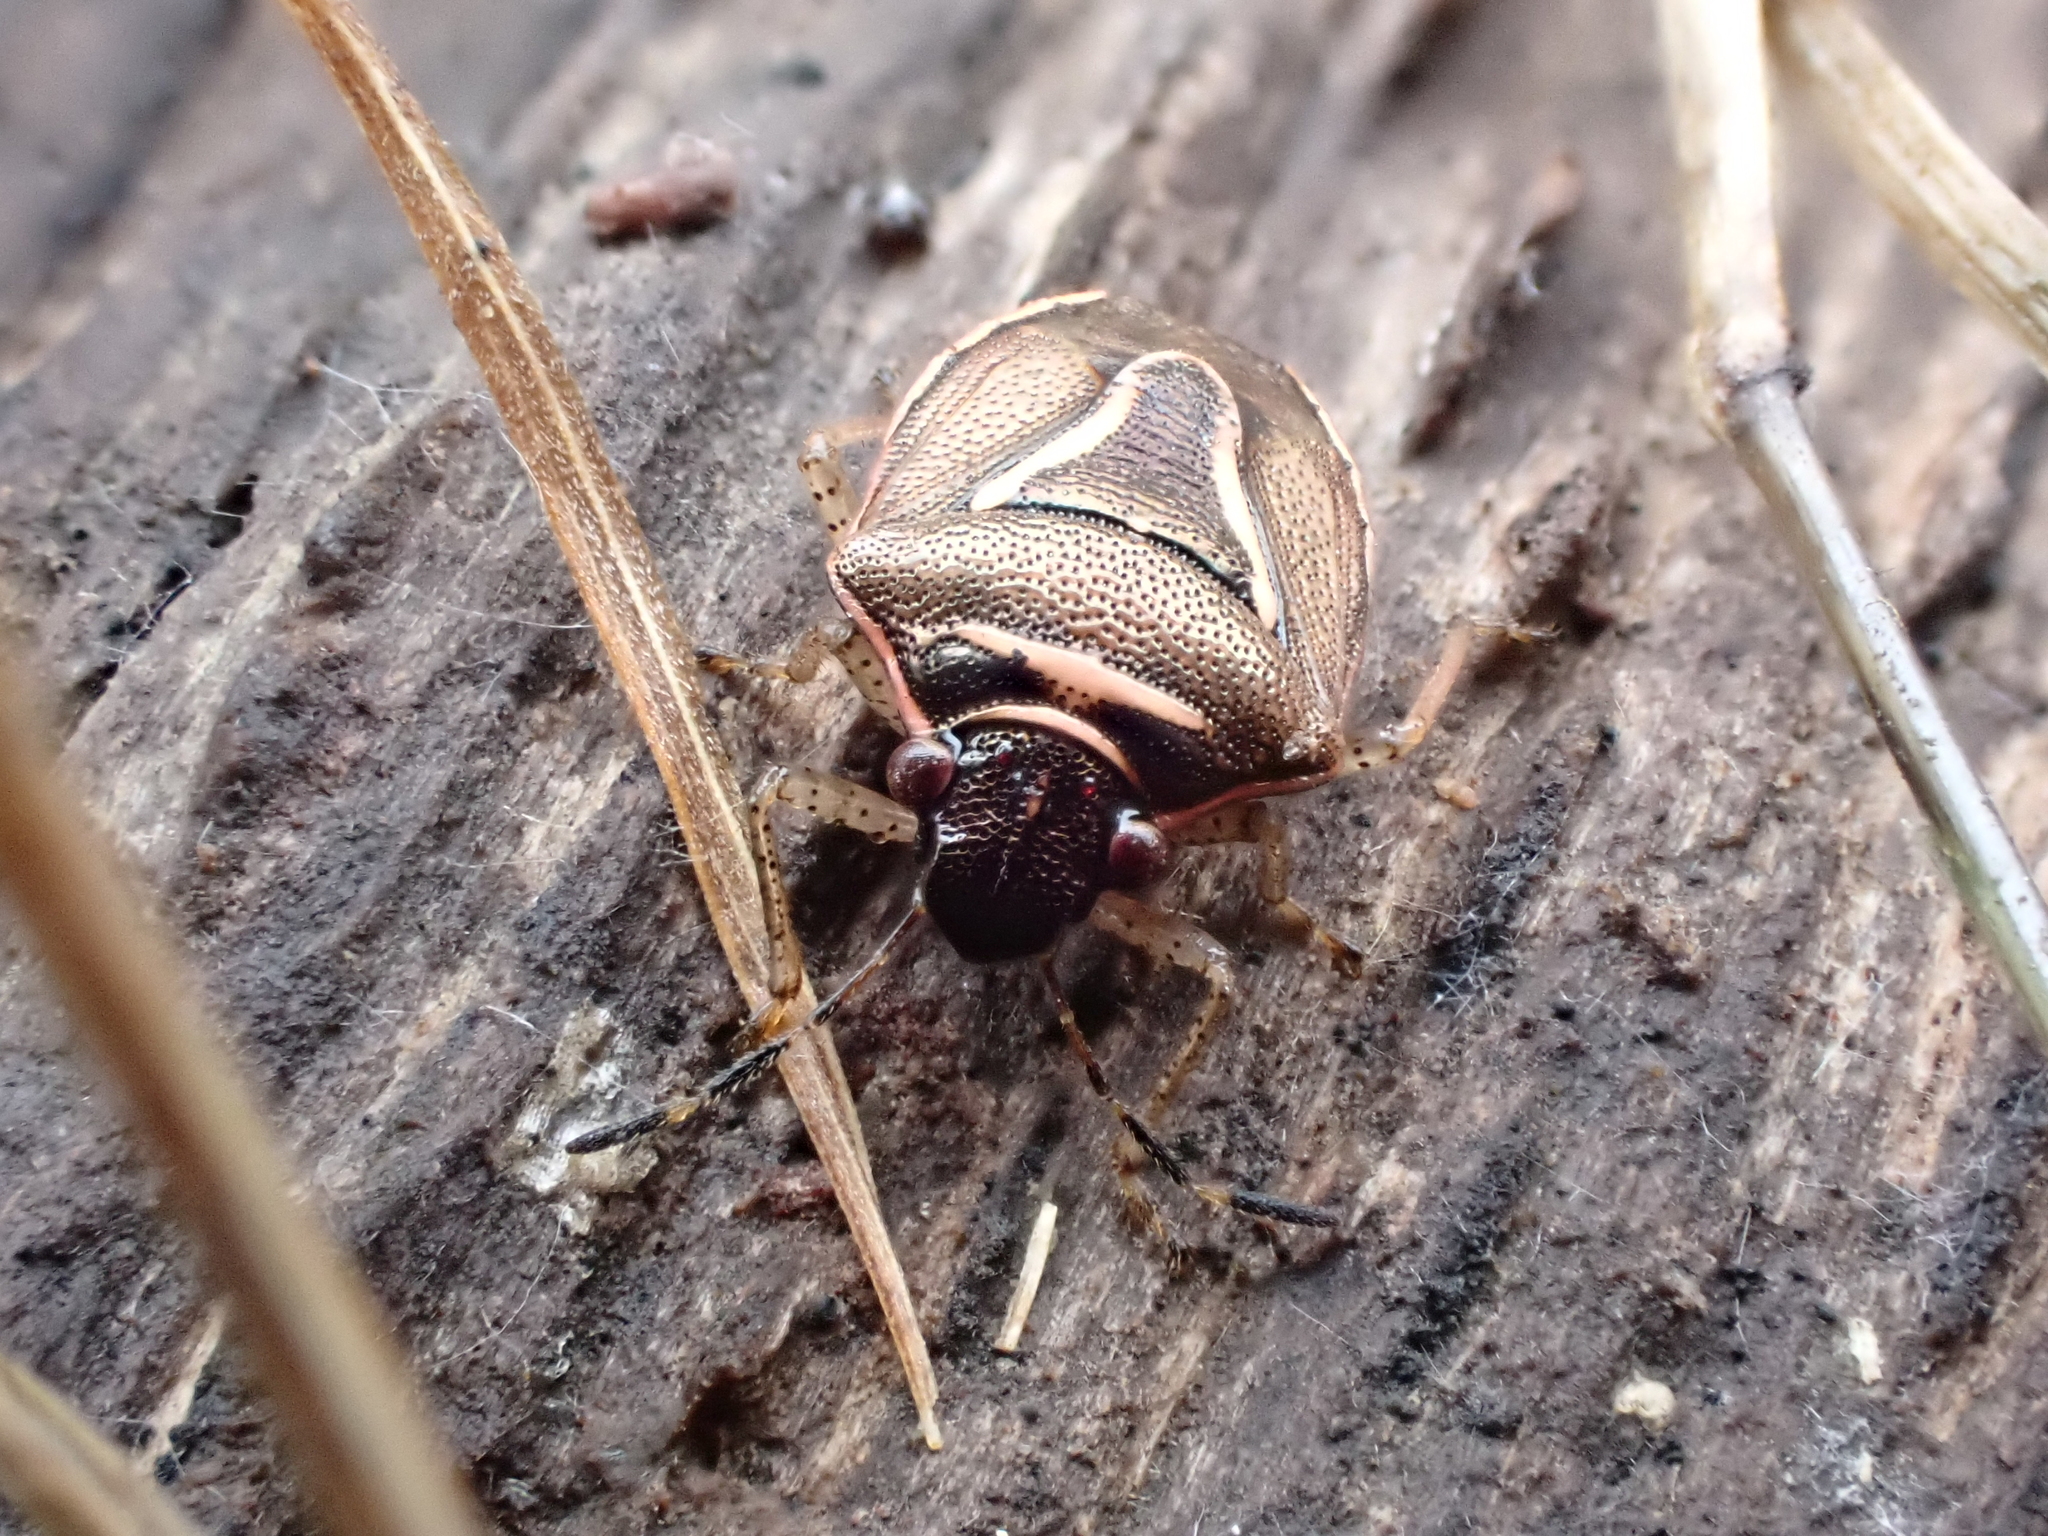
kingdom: Animalia
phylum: Arthropoda
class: Insecta
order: Hemiptera
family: Pentatomidae
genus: Mormidea
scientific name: Mormidea lugens
